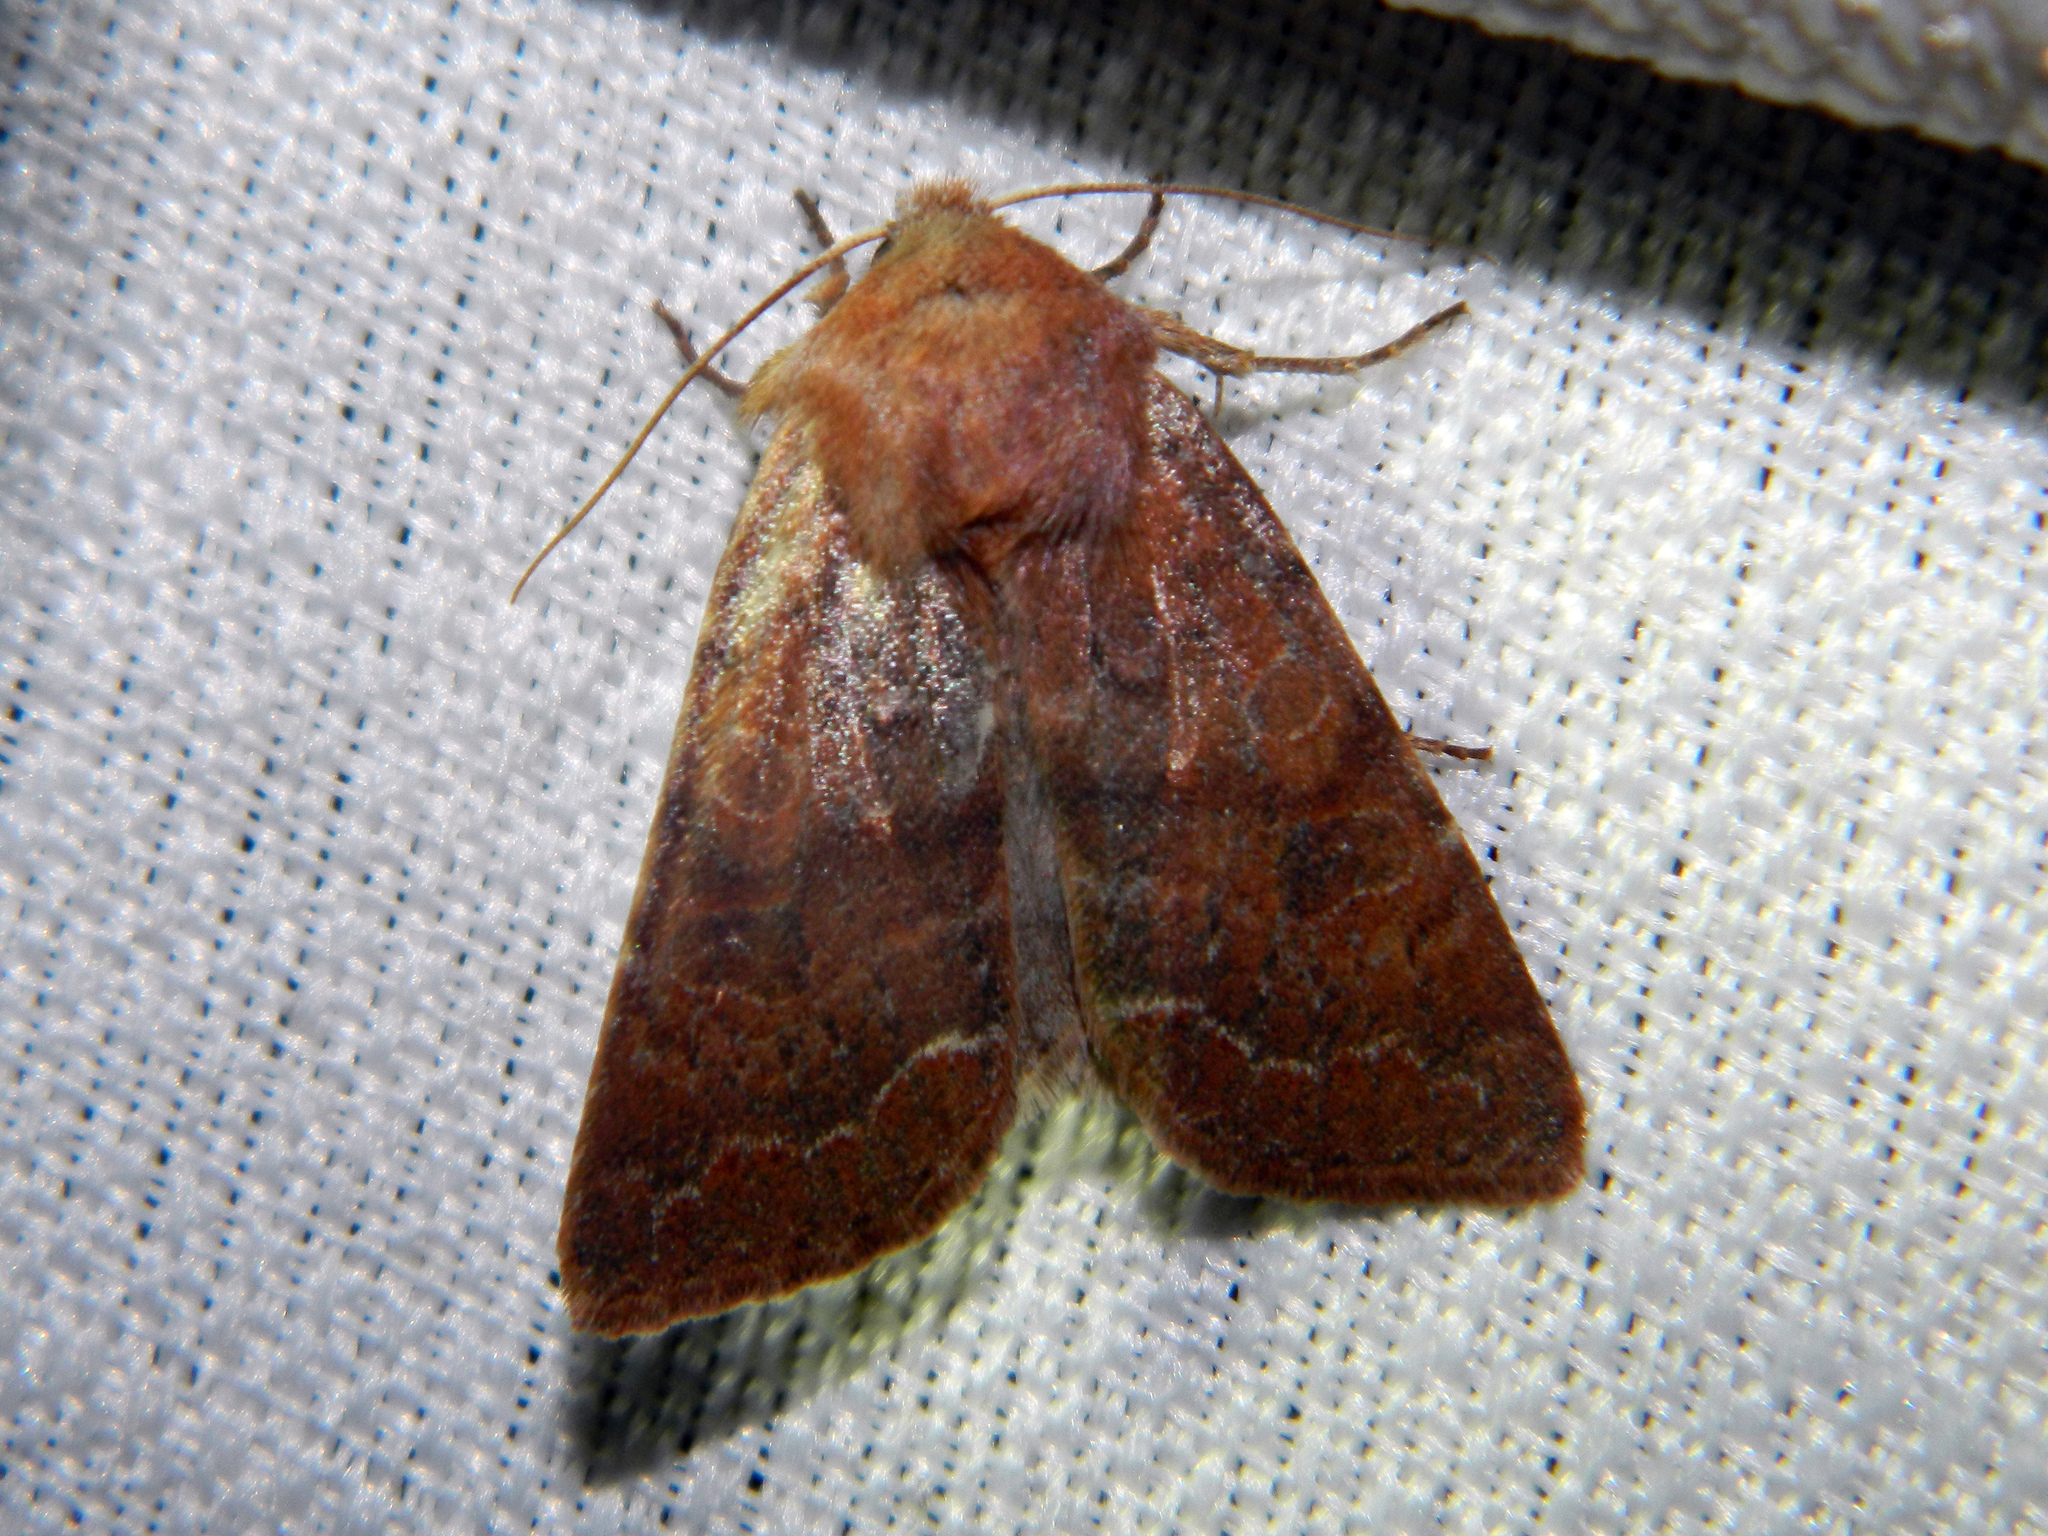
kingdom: Animalia
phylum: Arthropoda
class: Insecta
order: Lepidoptera
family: Noctuidae
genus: Orthosia
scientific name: Orthosia revicta
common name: Rusty whitesided caterpillar
